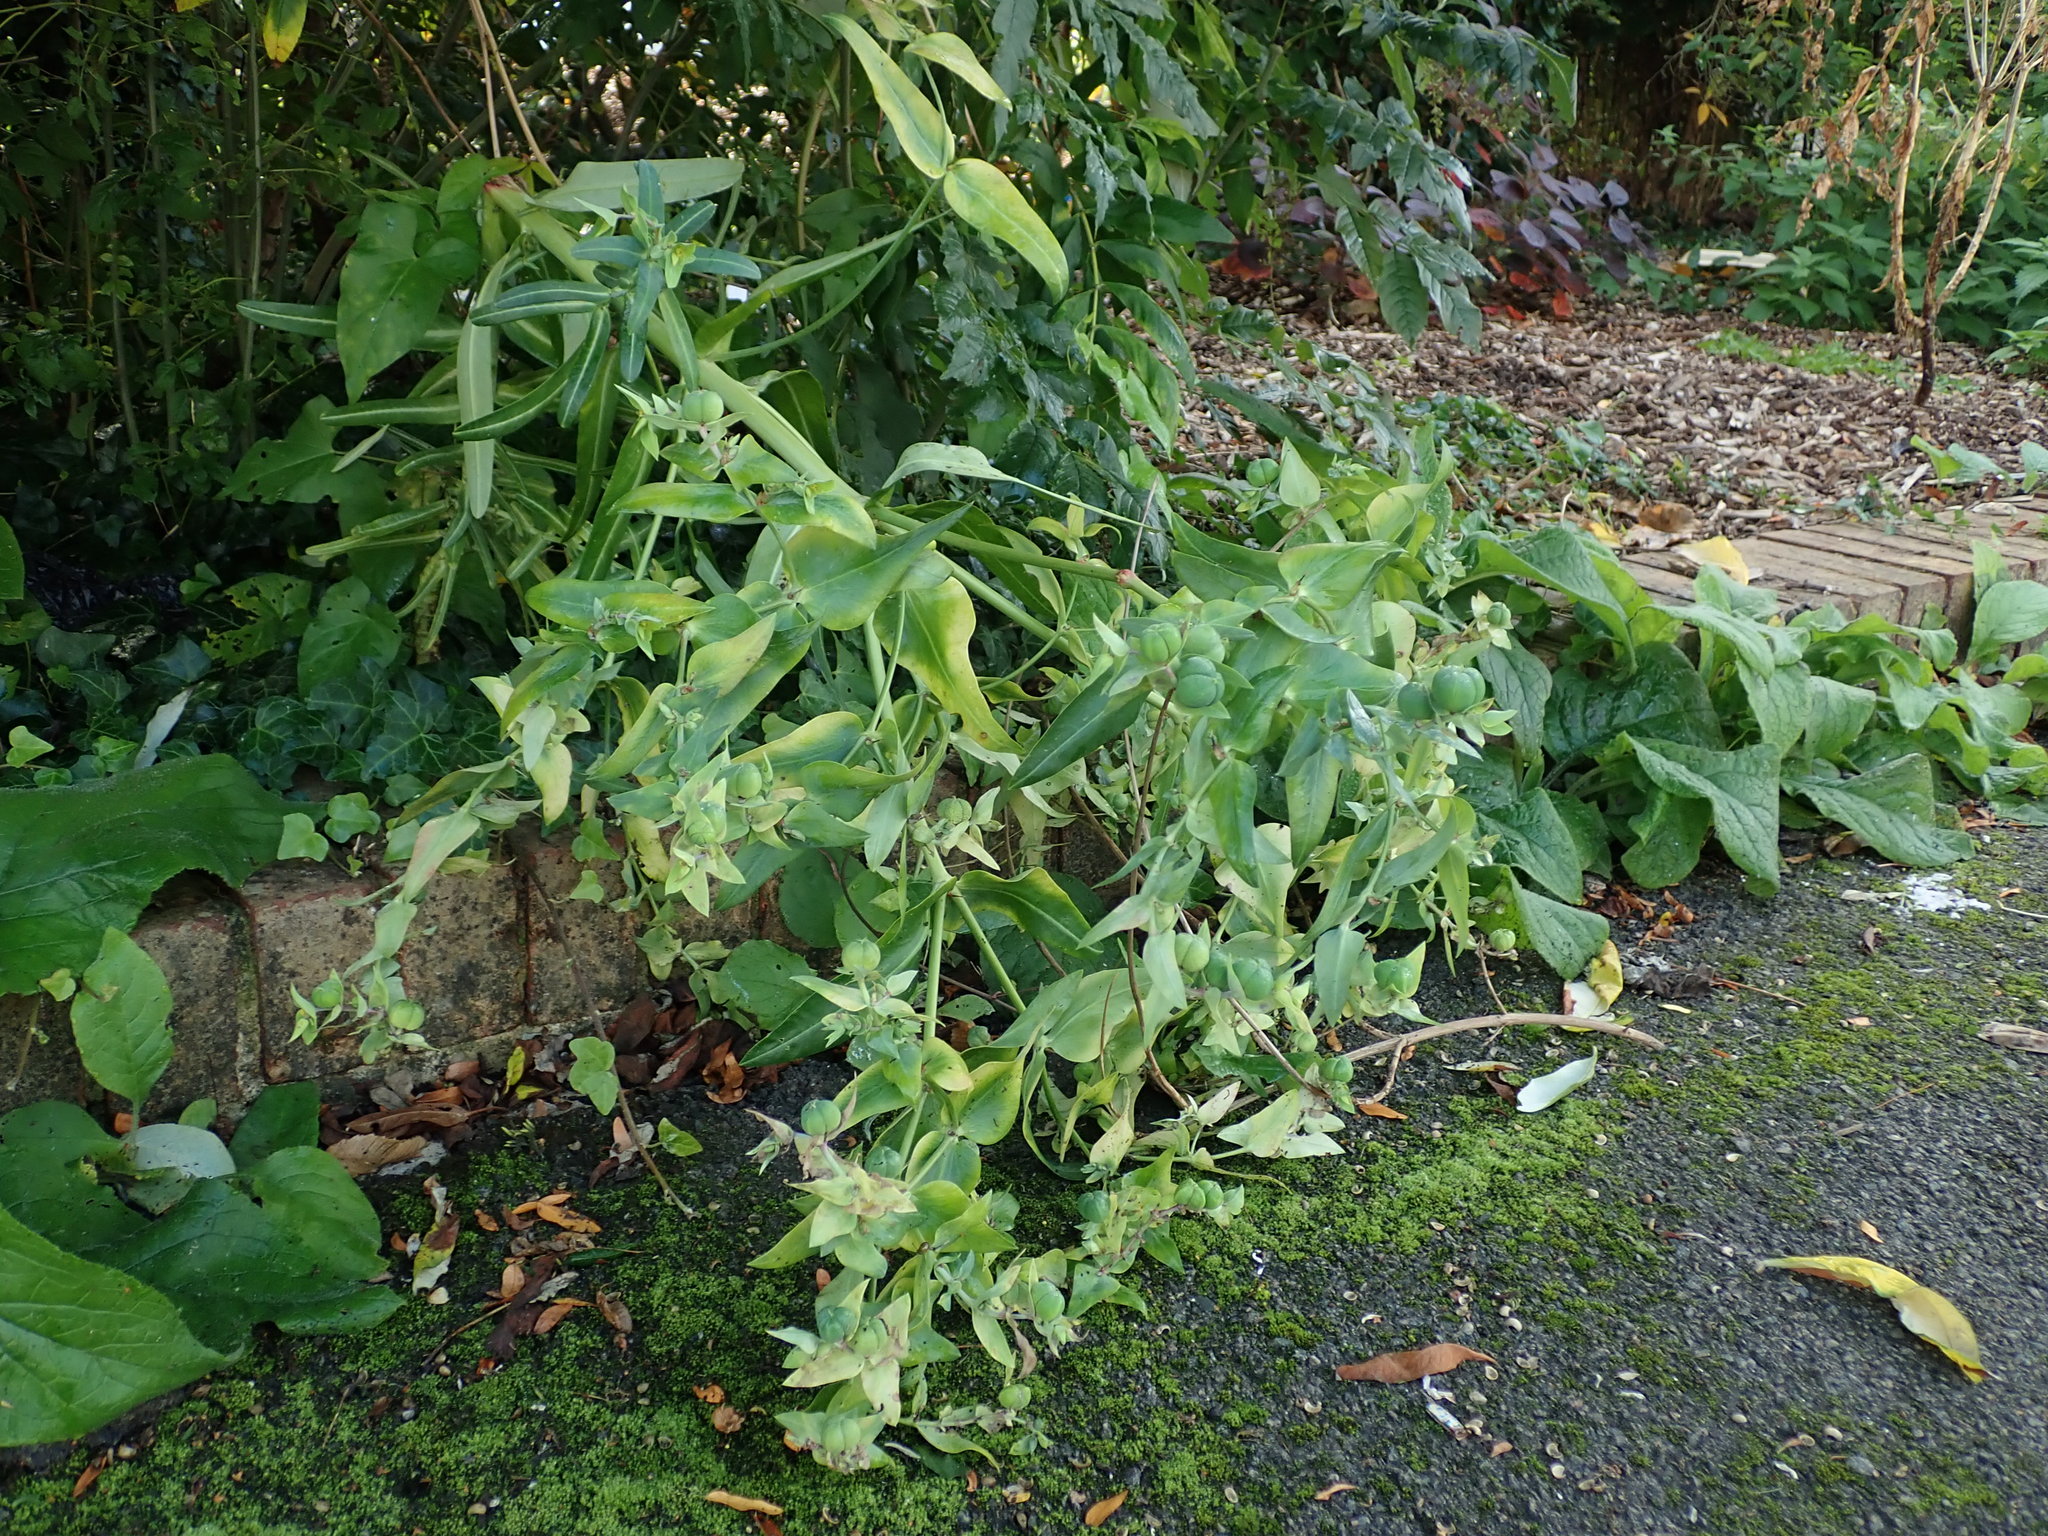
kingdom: Plantae
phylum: Tracheophyta
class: Magnoliopsida
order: Malpighiales
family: Euphorbiaceae
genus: Euphorbia
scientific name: Euphorbia lathyris
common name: Caper spurge
